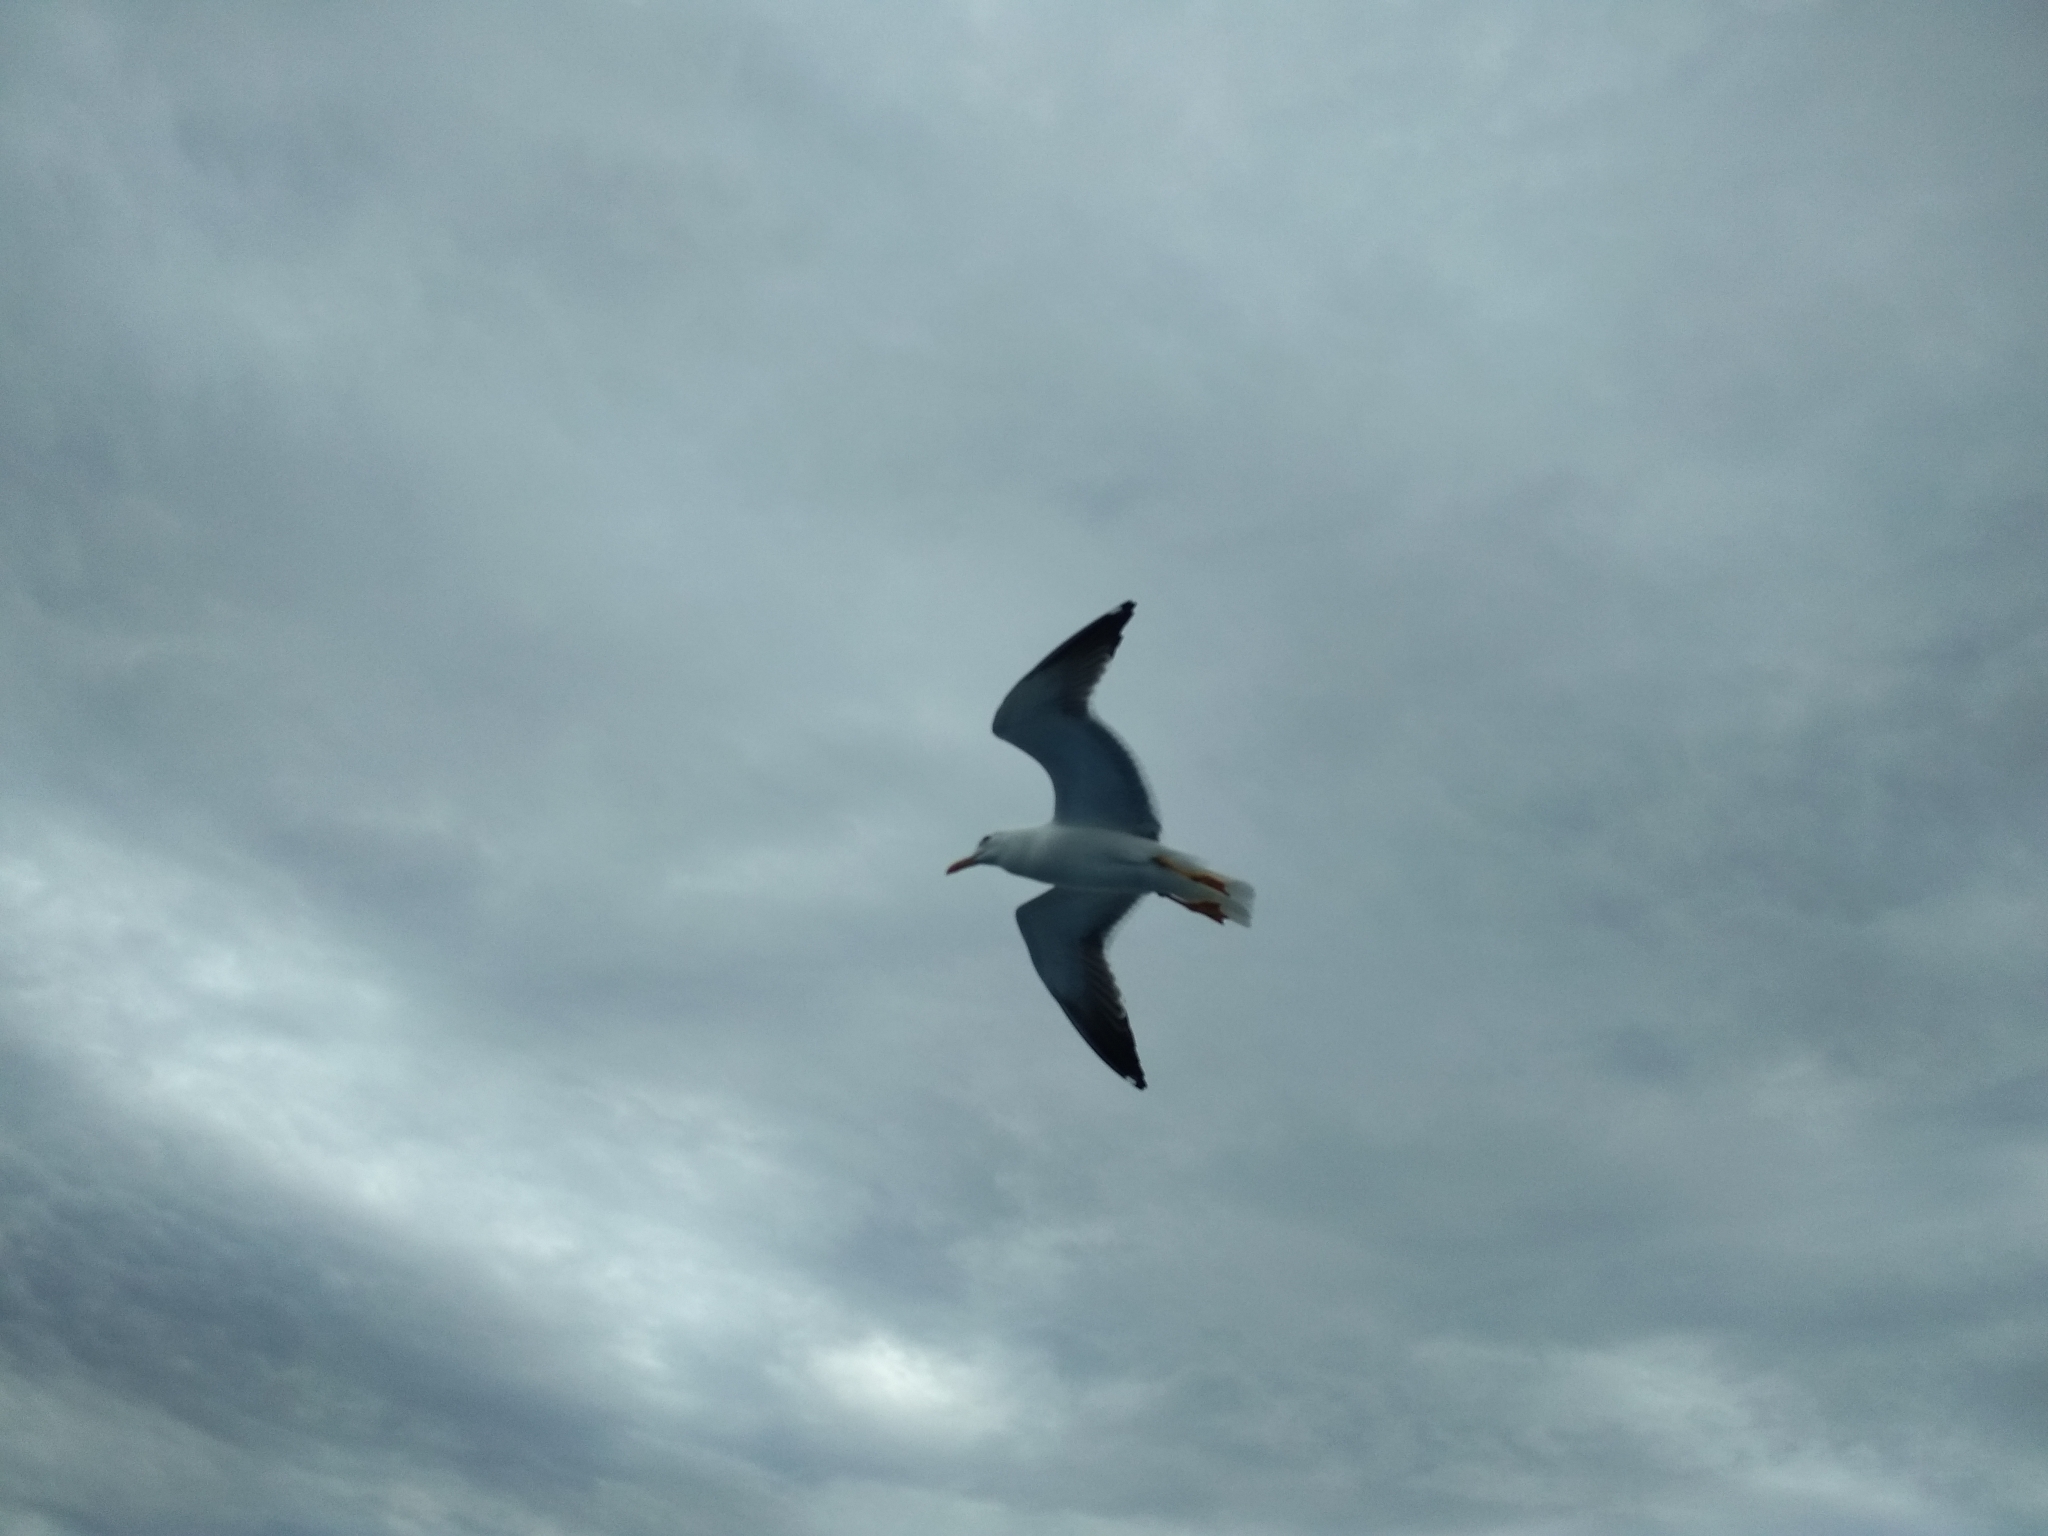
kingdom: Animalia
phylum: Chordata
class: Aves
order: Charadriiformes
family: Laridae
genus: Larus
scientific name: Larus fuscus
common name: Lesser black-backed gull
